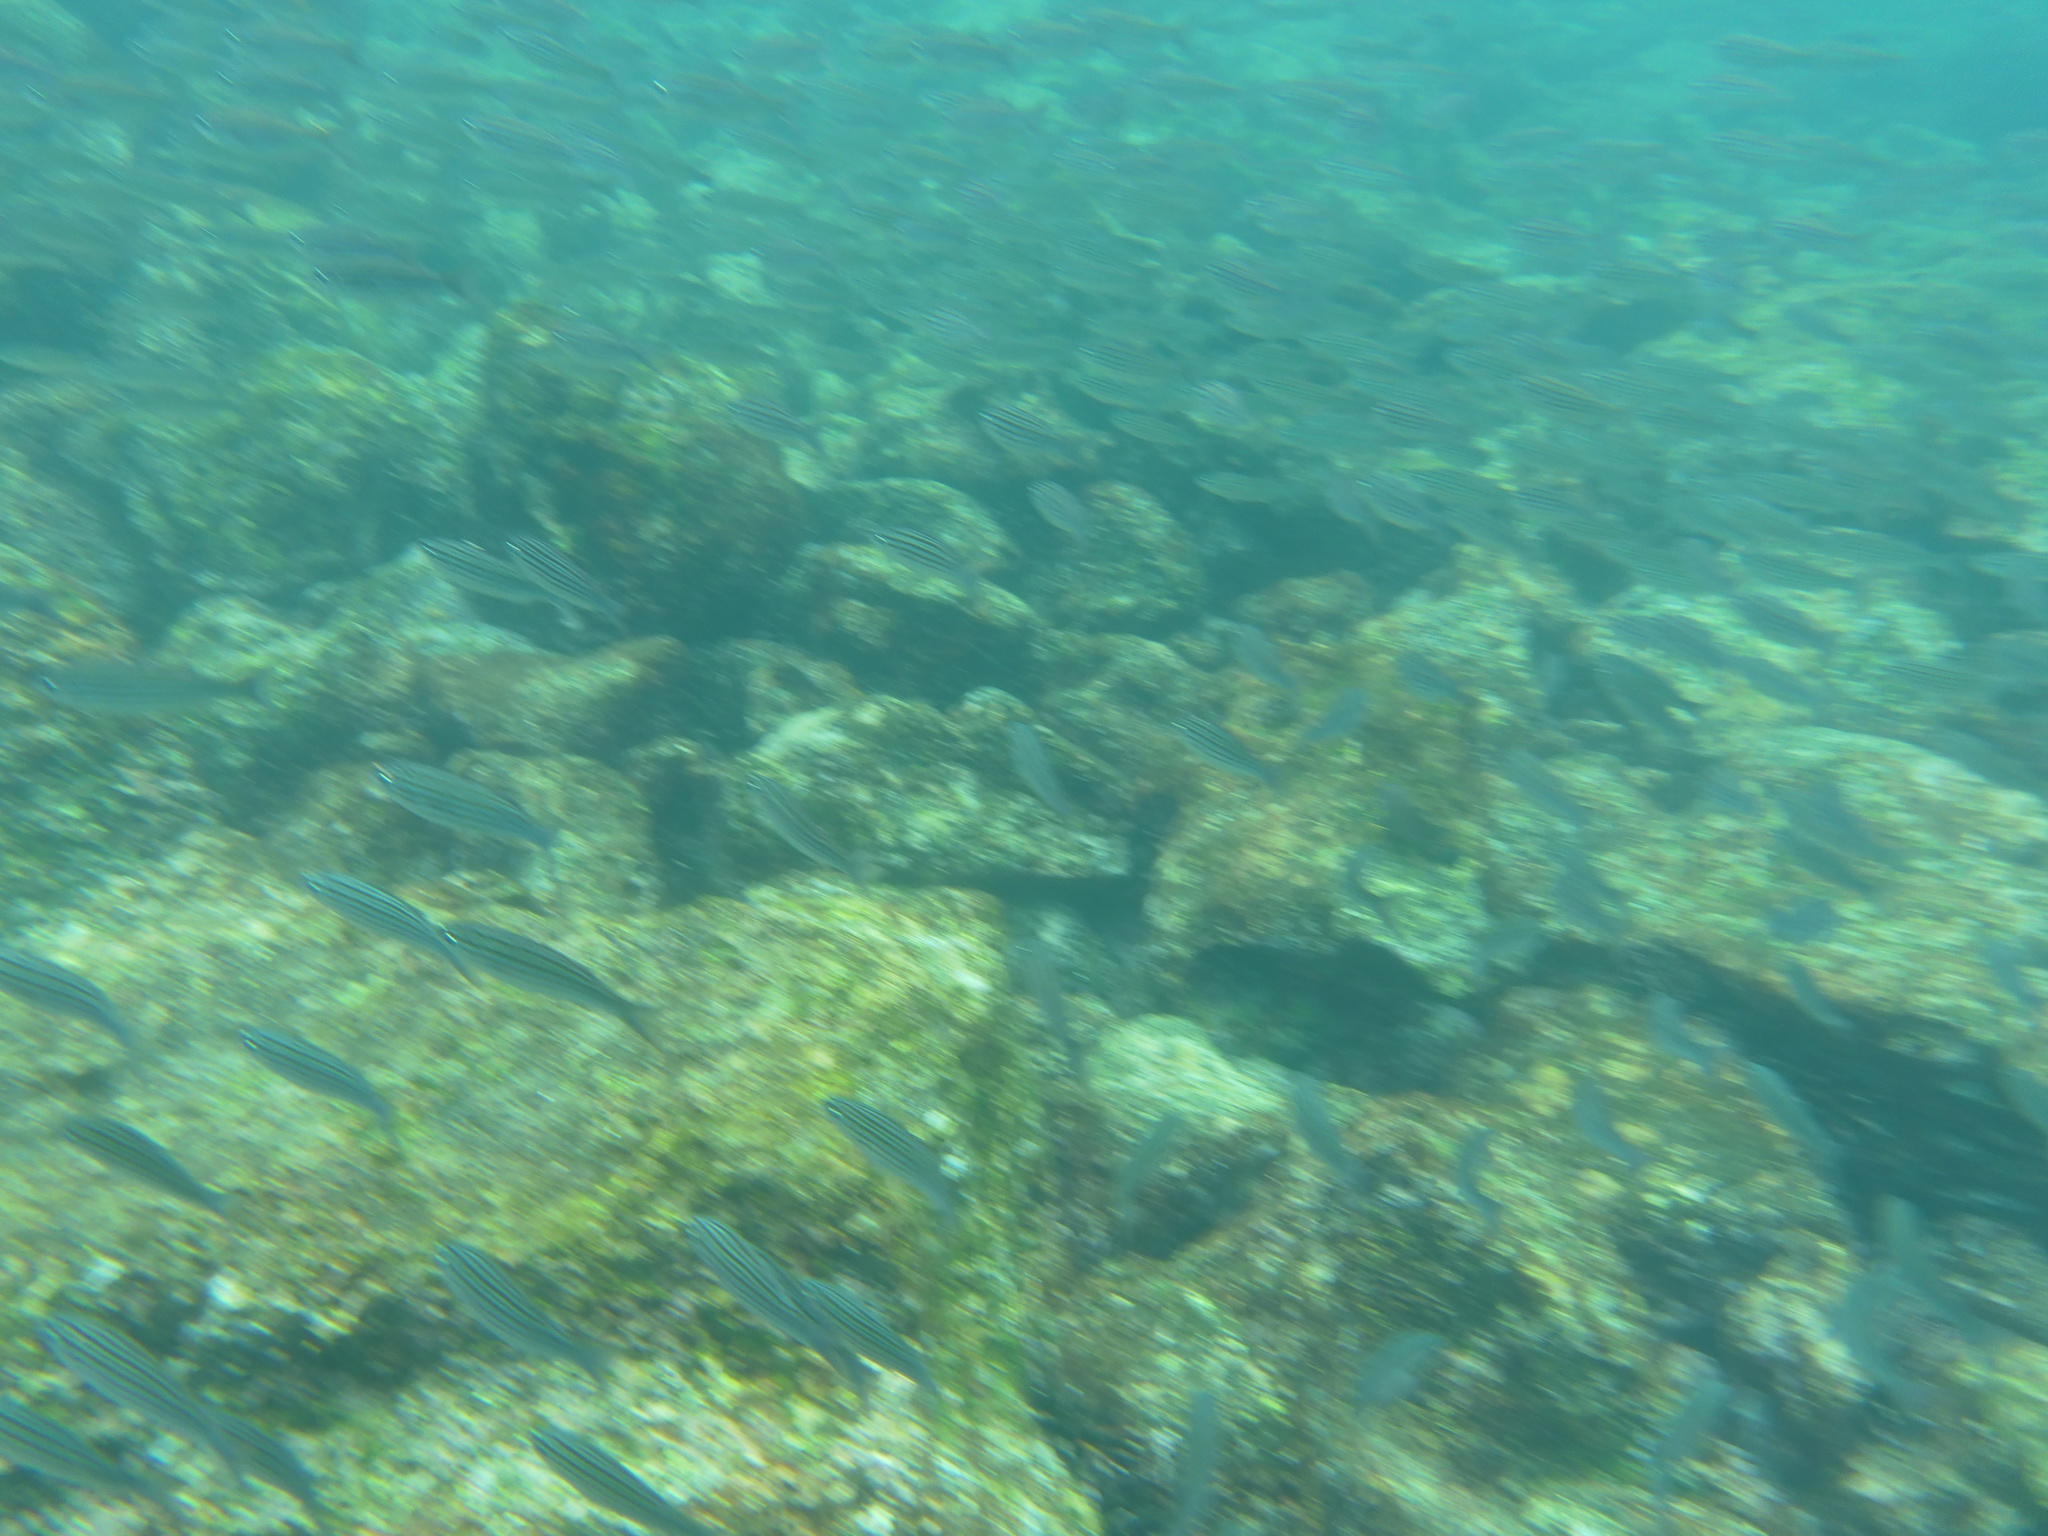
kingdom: Animalia
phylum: Chordata
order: Perciformes
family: Haemulidae
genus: Xenocys
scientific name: Xenocys jessiae
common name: Black-striped salema
